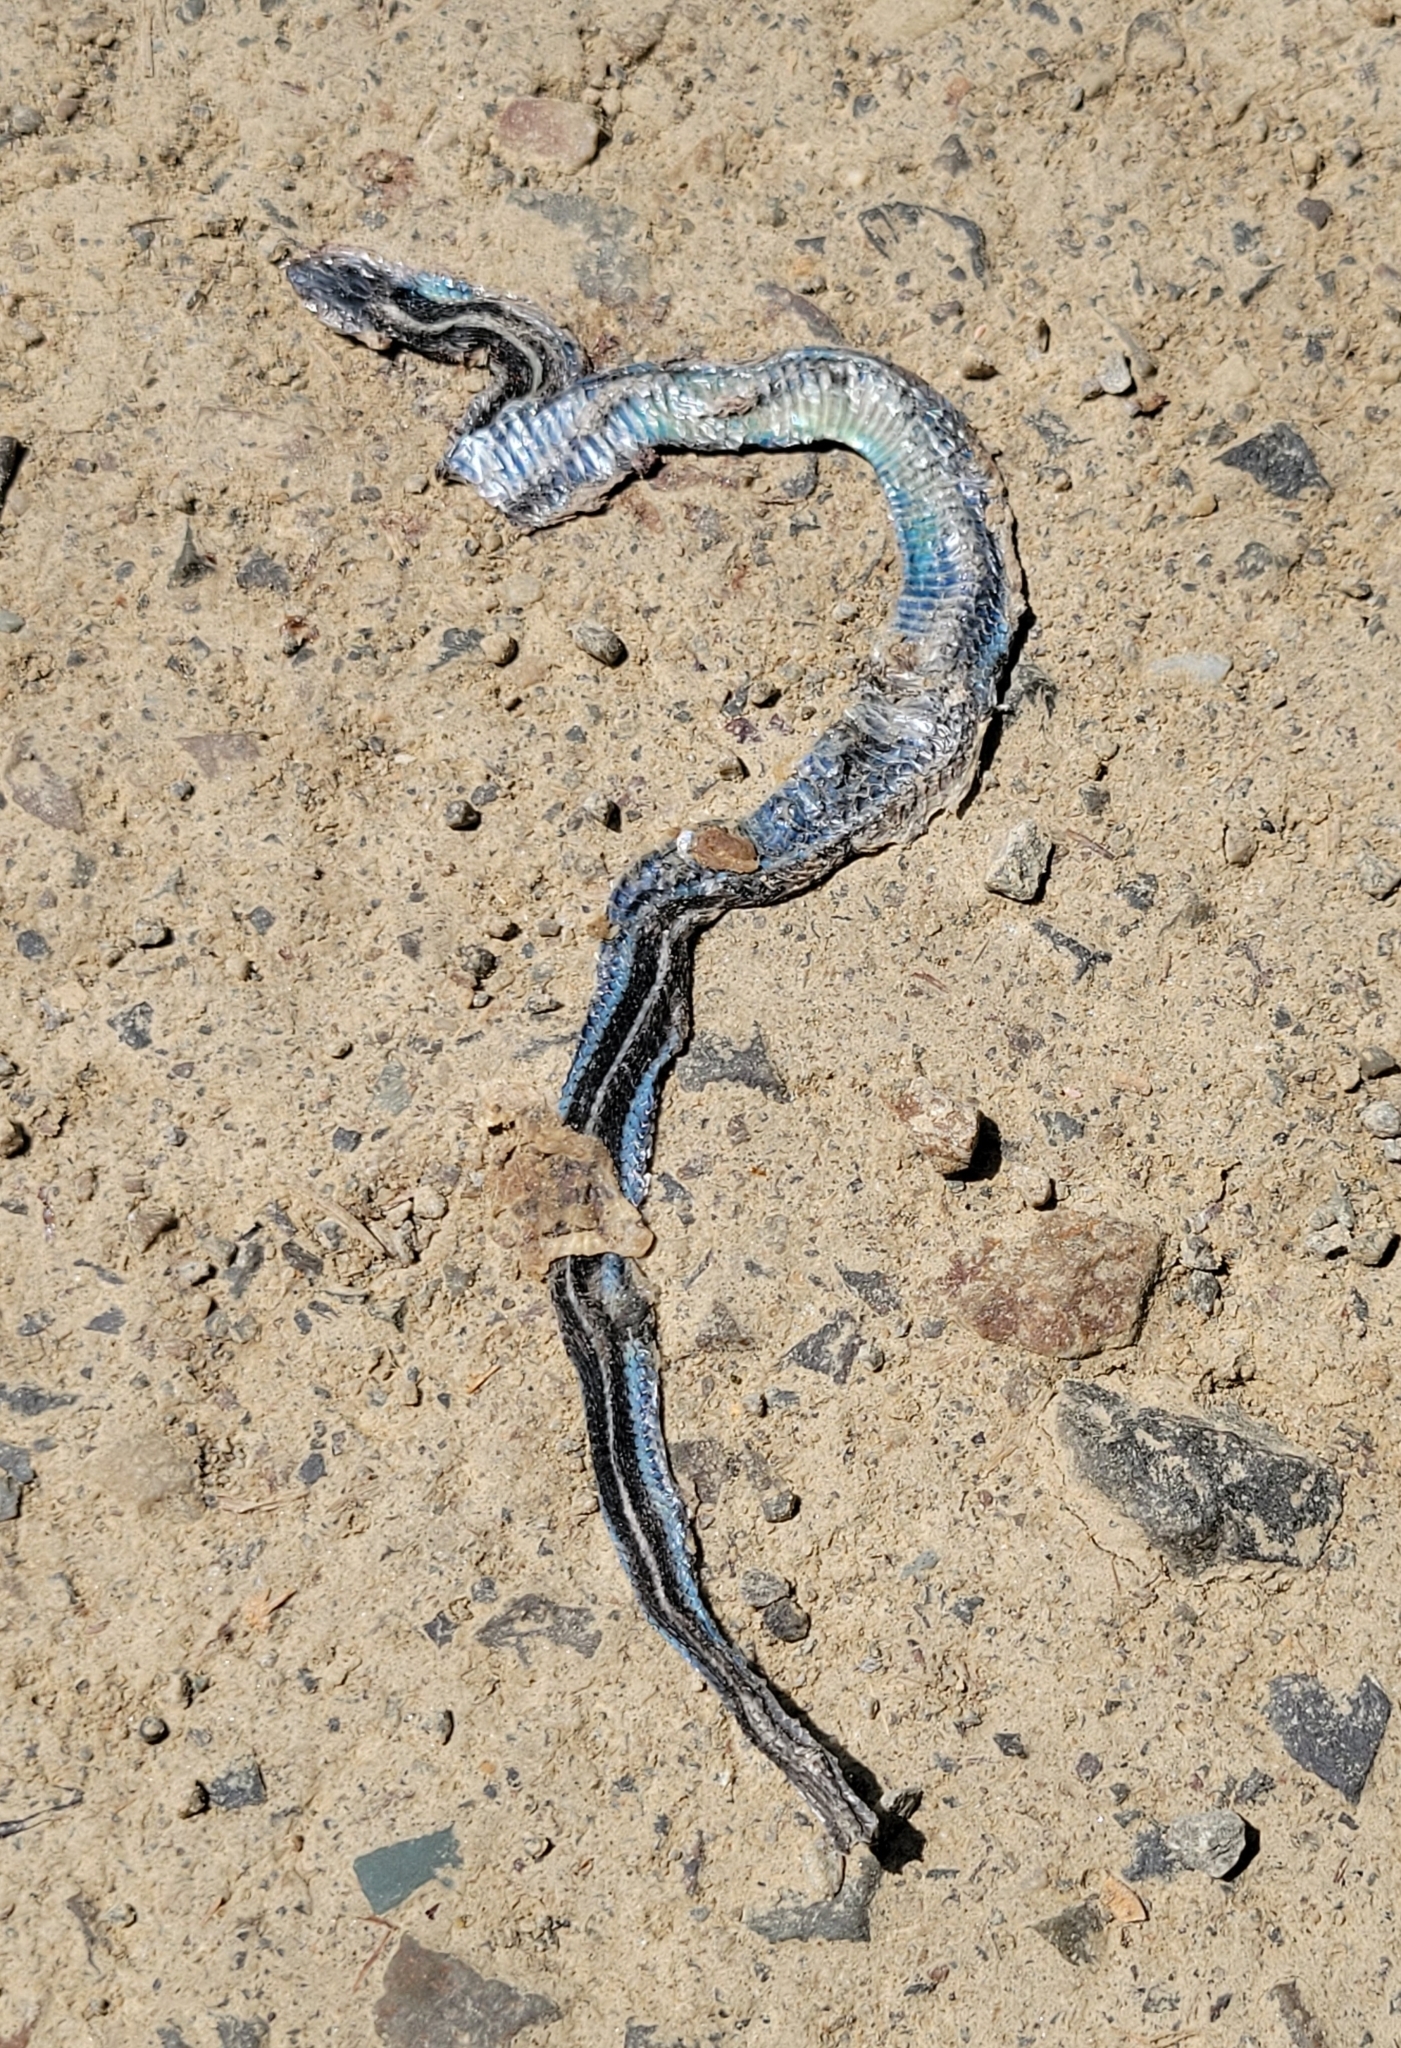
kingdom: Animalia
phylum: Chordata
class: Squamata
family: Colubridae
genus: Thamnophis
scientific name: Thamnophis sirtalis
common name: Common garter snake
